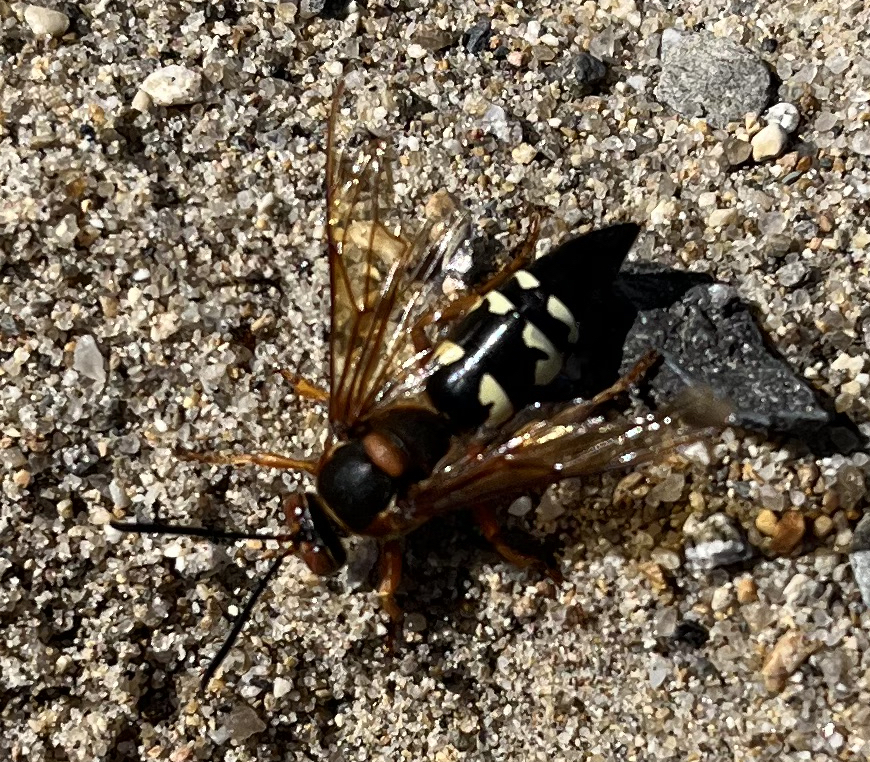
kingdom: Animalia
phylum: Arthropoda
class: Insecta
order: Hymenoptera
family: Crabronidae
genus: Sphecius
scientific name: Sphecius speciosus
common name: Cicada killer
